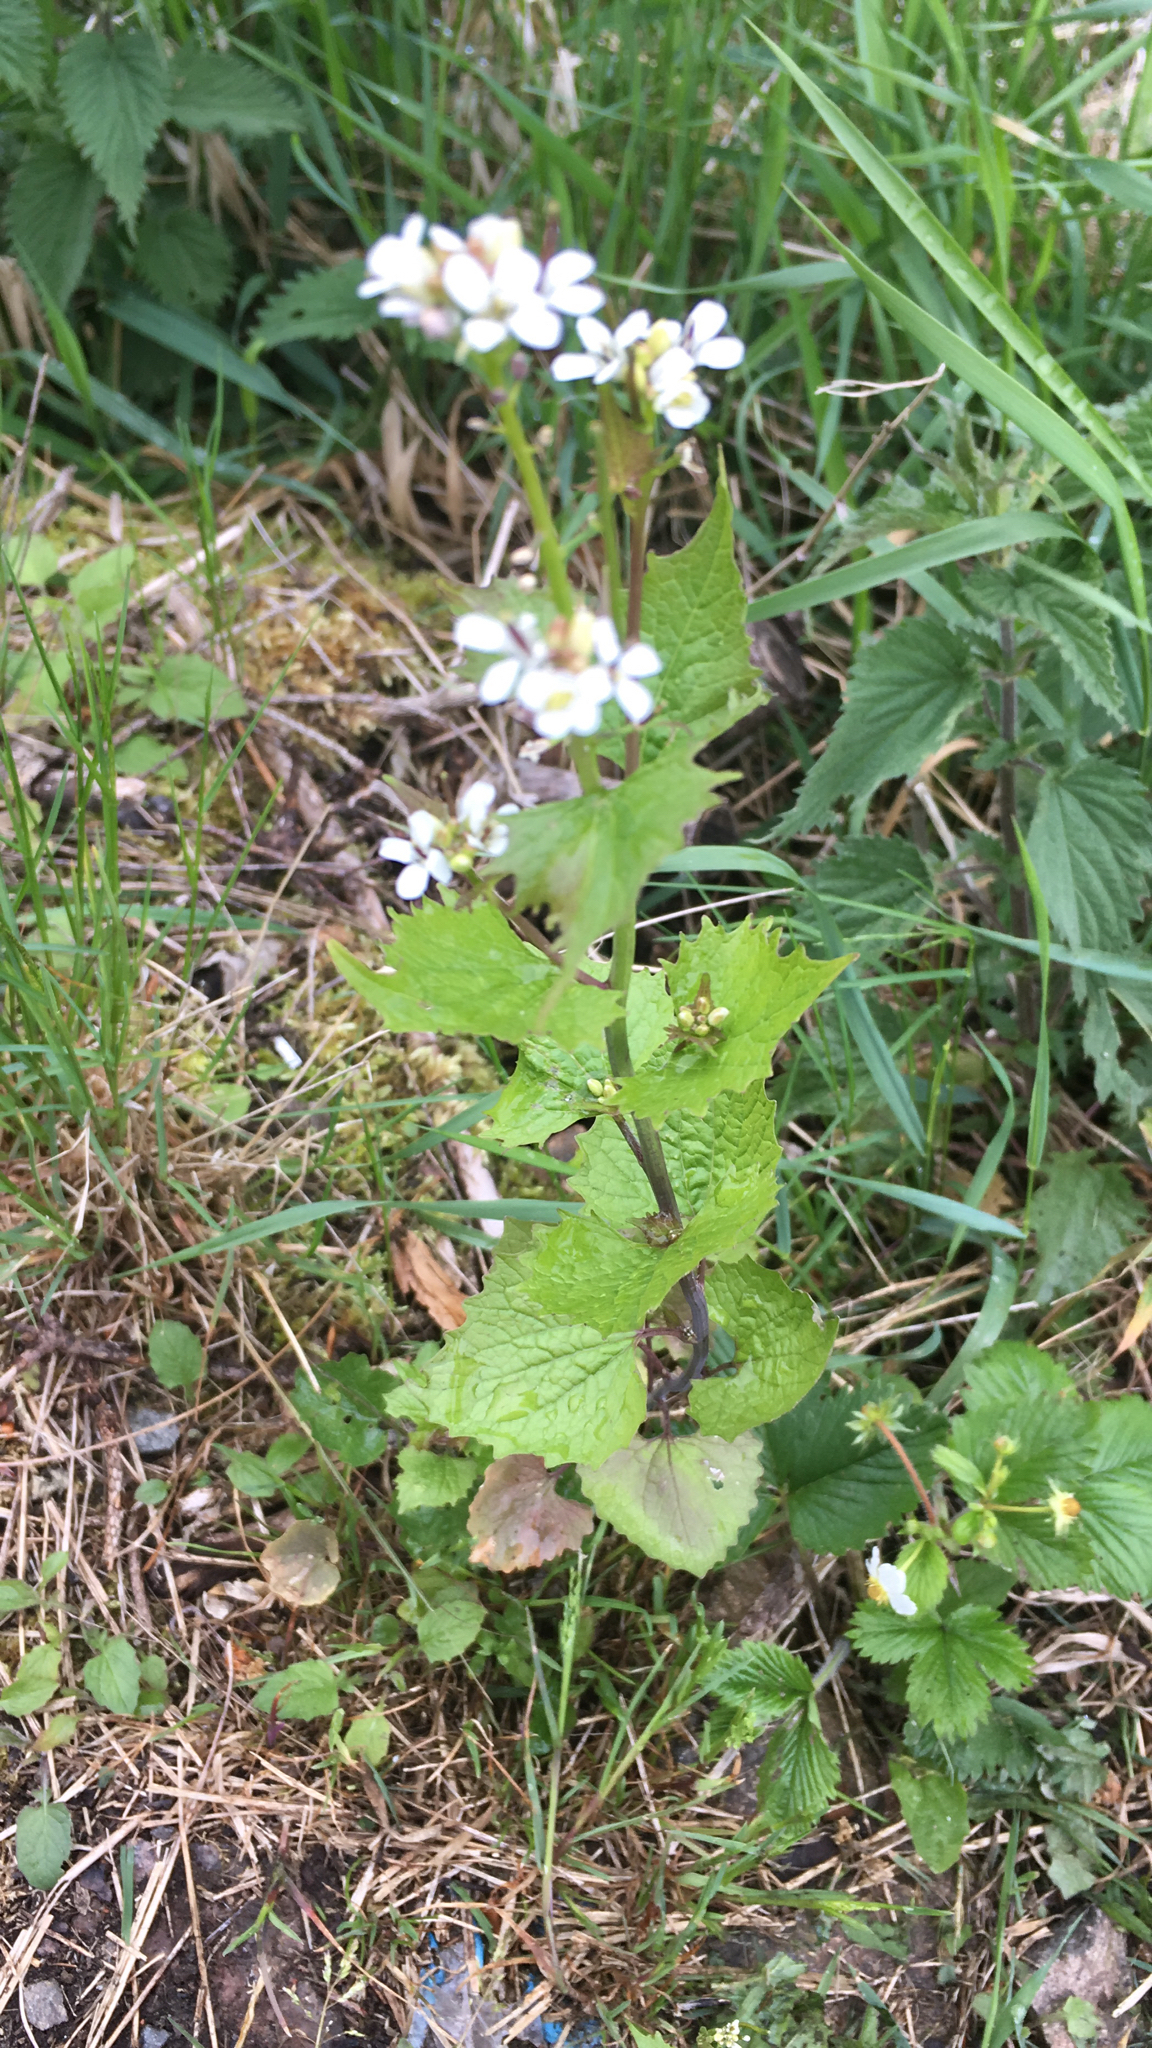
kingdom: Plantae
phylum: Tracheophyta
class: Magnoliopsida
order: Brassicales
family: Brassicaceae
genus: Alliaria
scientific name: Alliaria petiolata
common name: Garlic mustard
